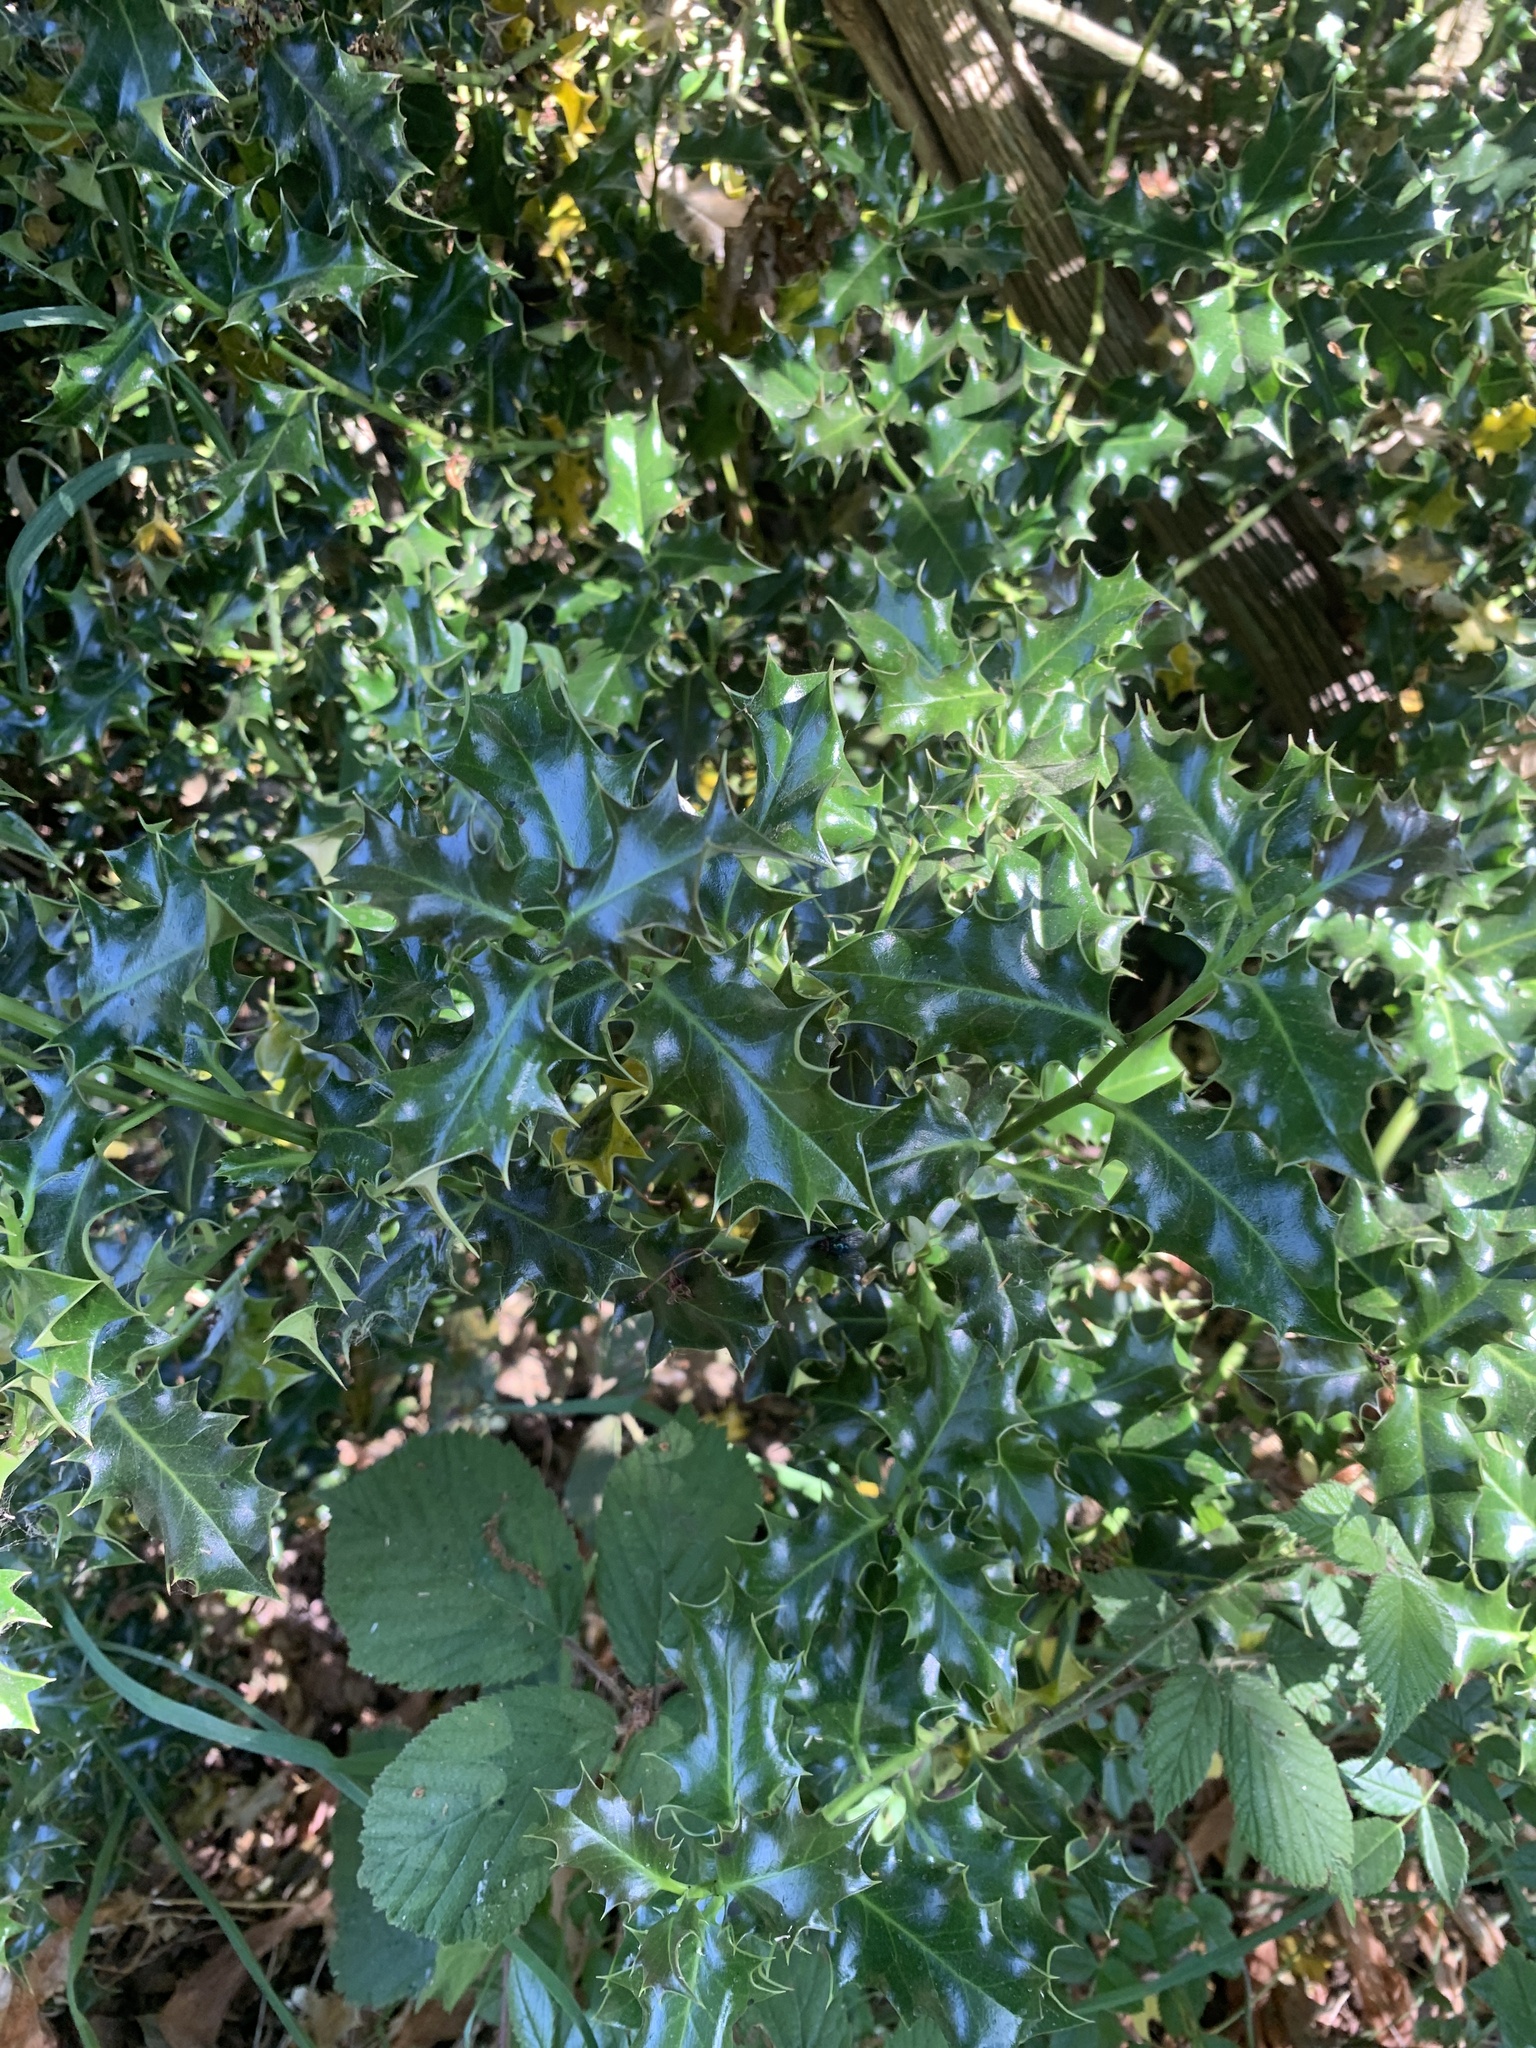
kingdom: Plantae
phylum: Tracheophyta
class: Magnoliopsida
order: Aquifoliales
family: Aquifoliaceae
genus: Ilex
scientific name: Ilex aquifolium
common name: English holly
